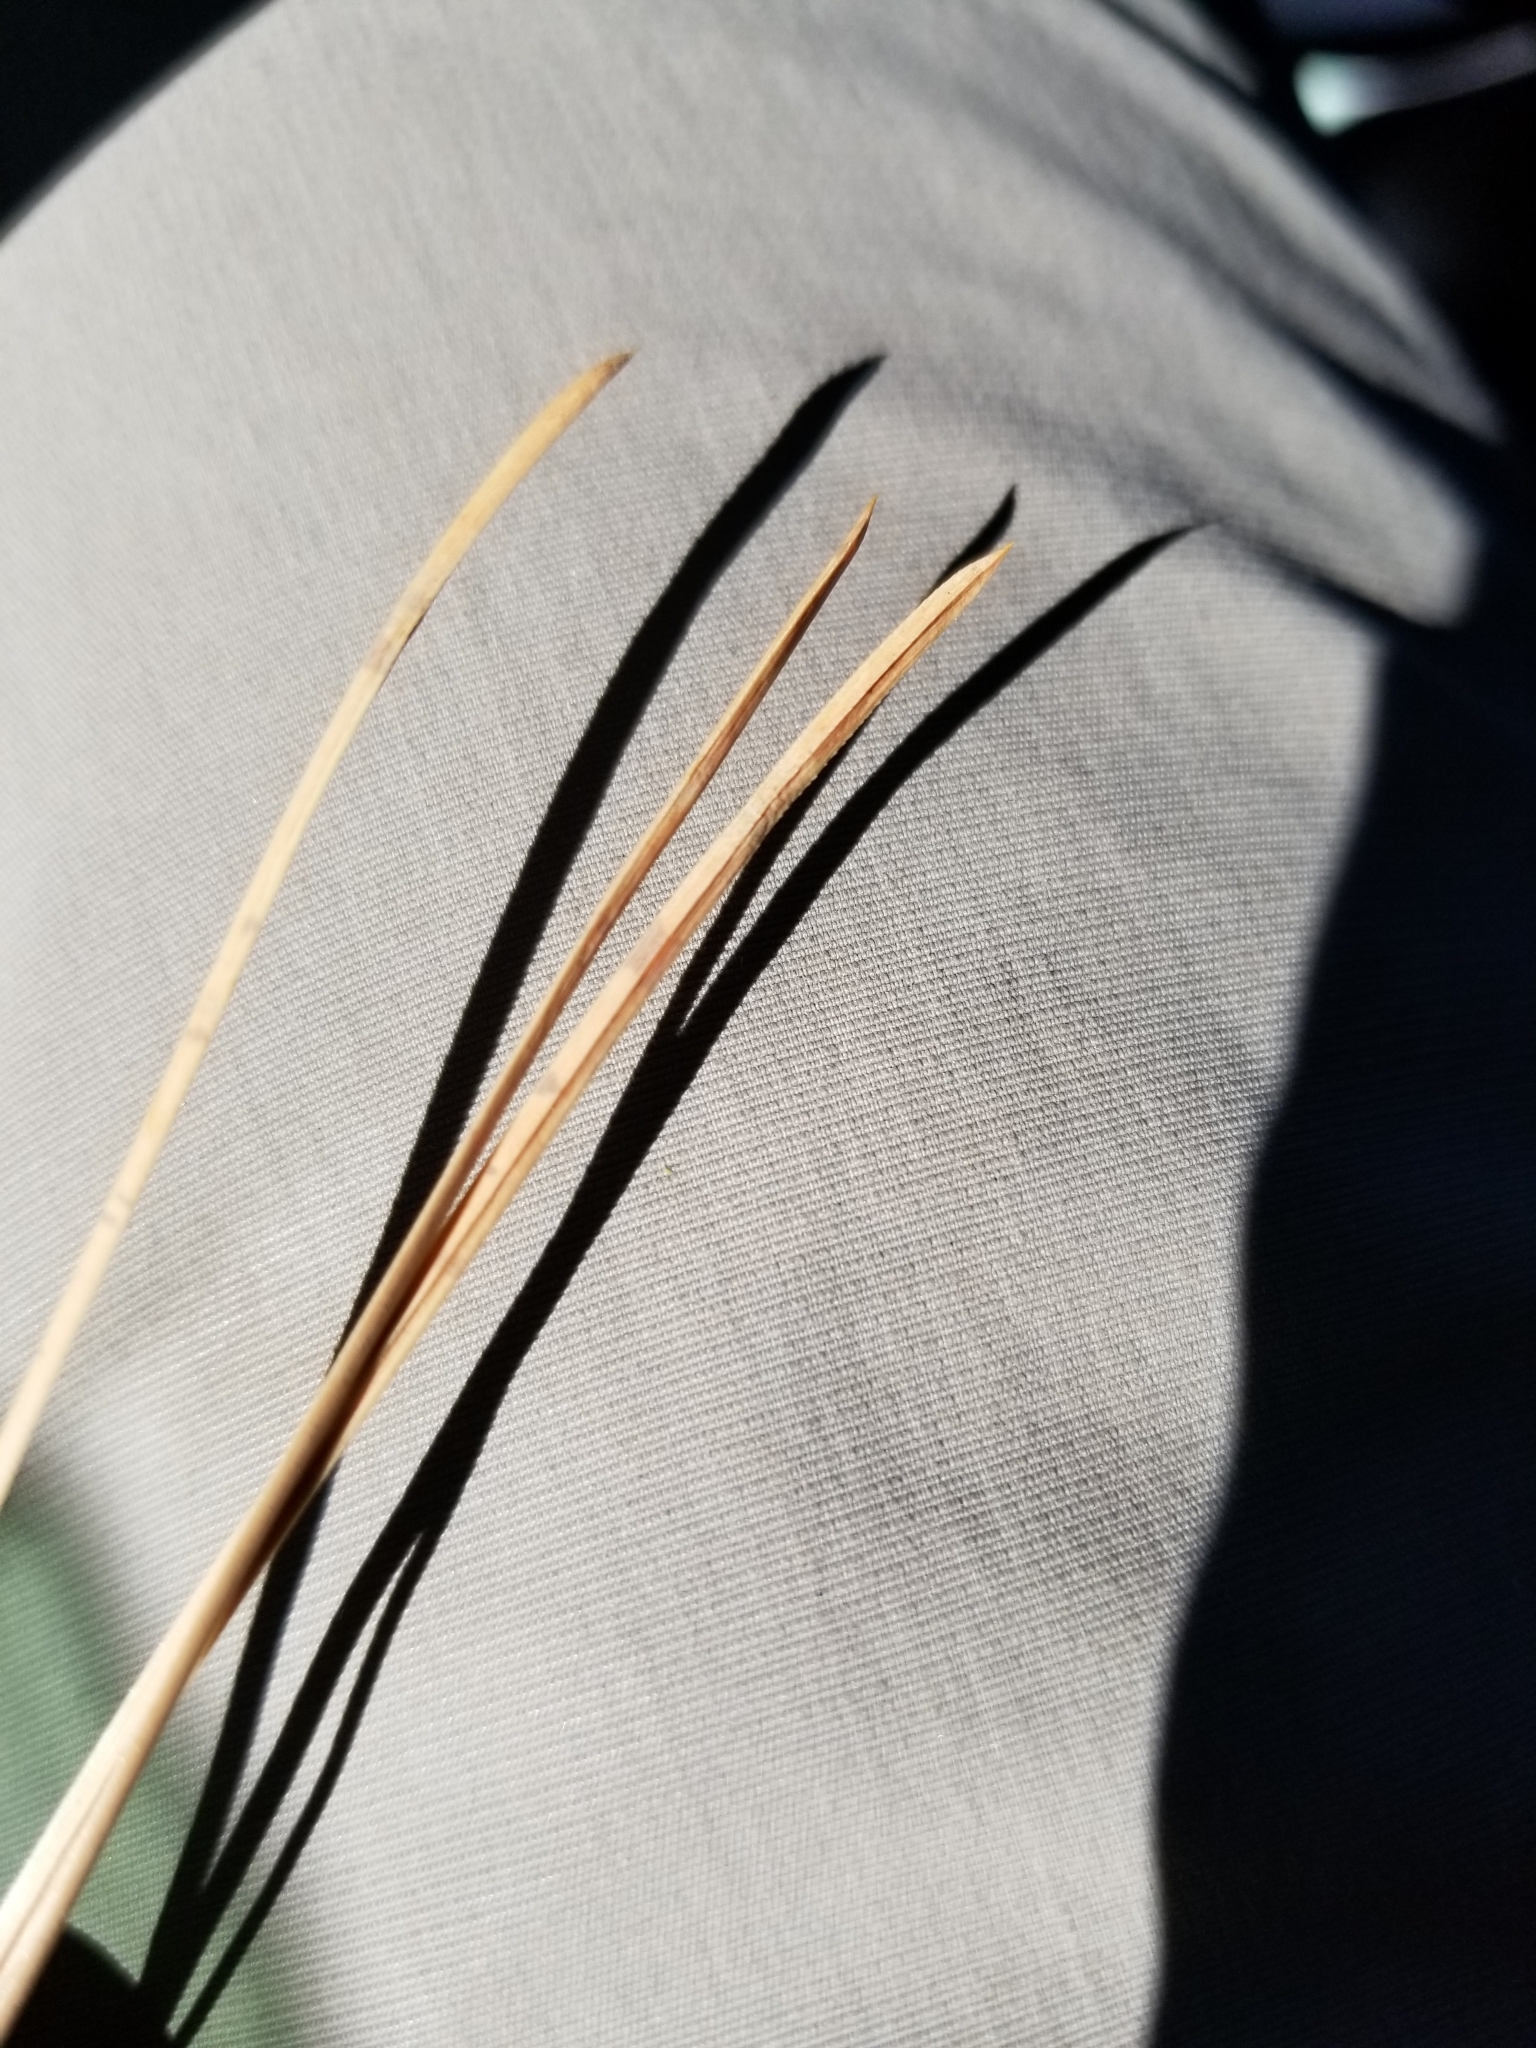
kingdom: Plantae
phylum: Tracheophyta
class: Pinopsida
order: Pinales
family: Pinaceae
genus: Pinus
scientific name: Pinus ponderosa
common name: Western yellow-pine
